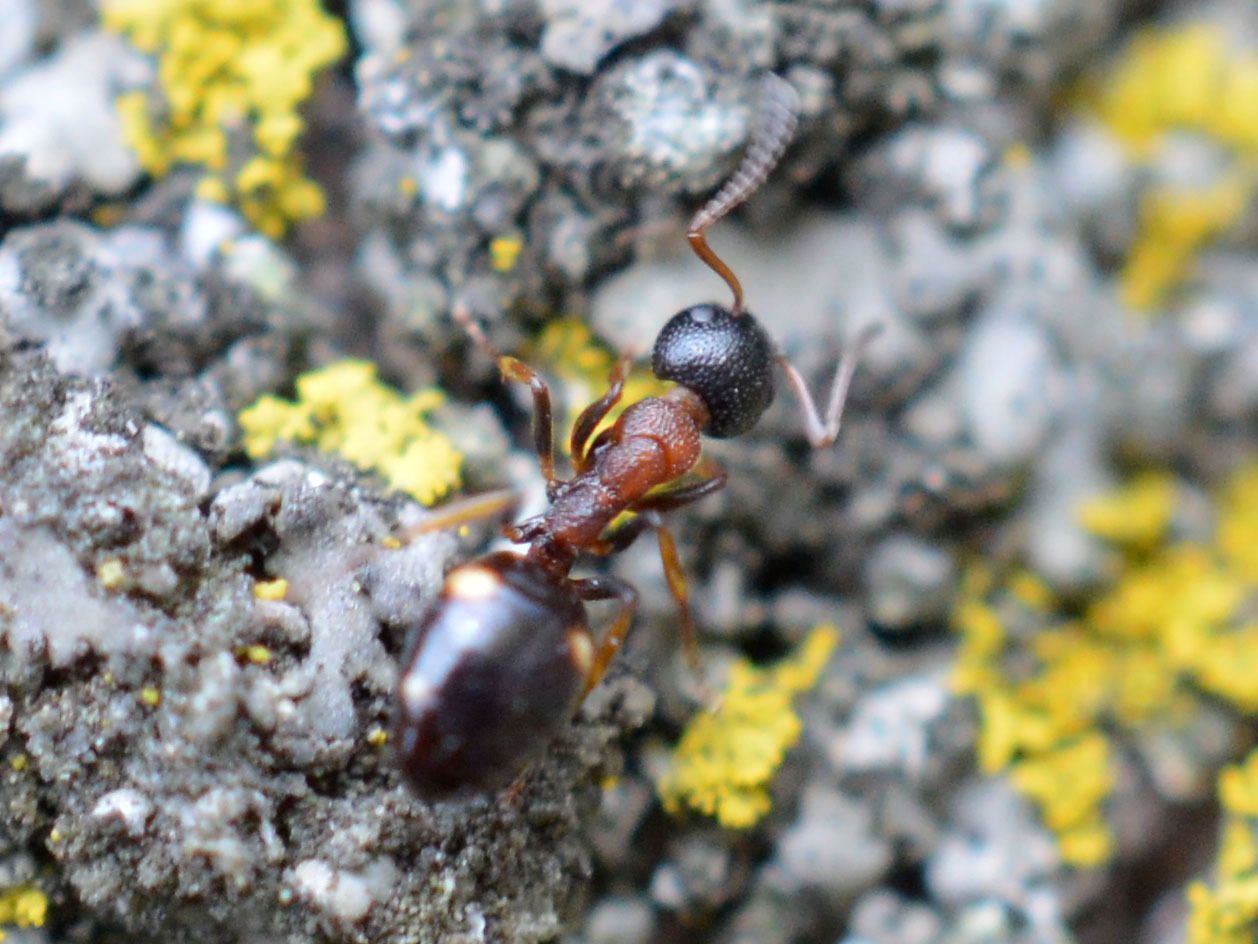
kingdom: Animalia
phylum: Arthropoda
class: Insecta
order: Hymenoptera
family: Formicidae
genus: Dolichoderus
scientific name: Dolichoderus quadripunctatus
